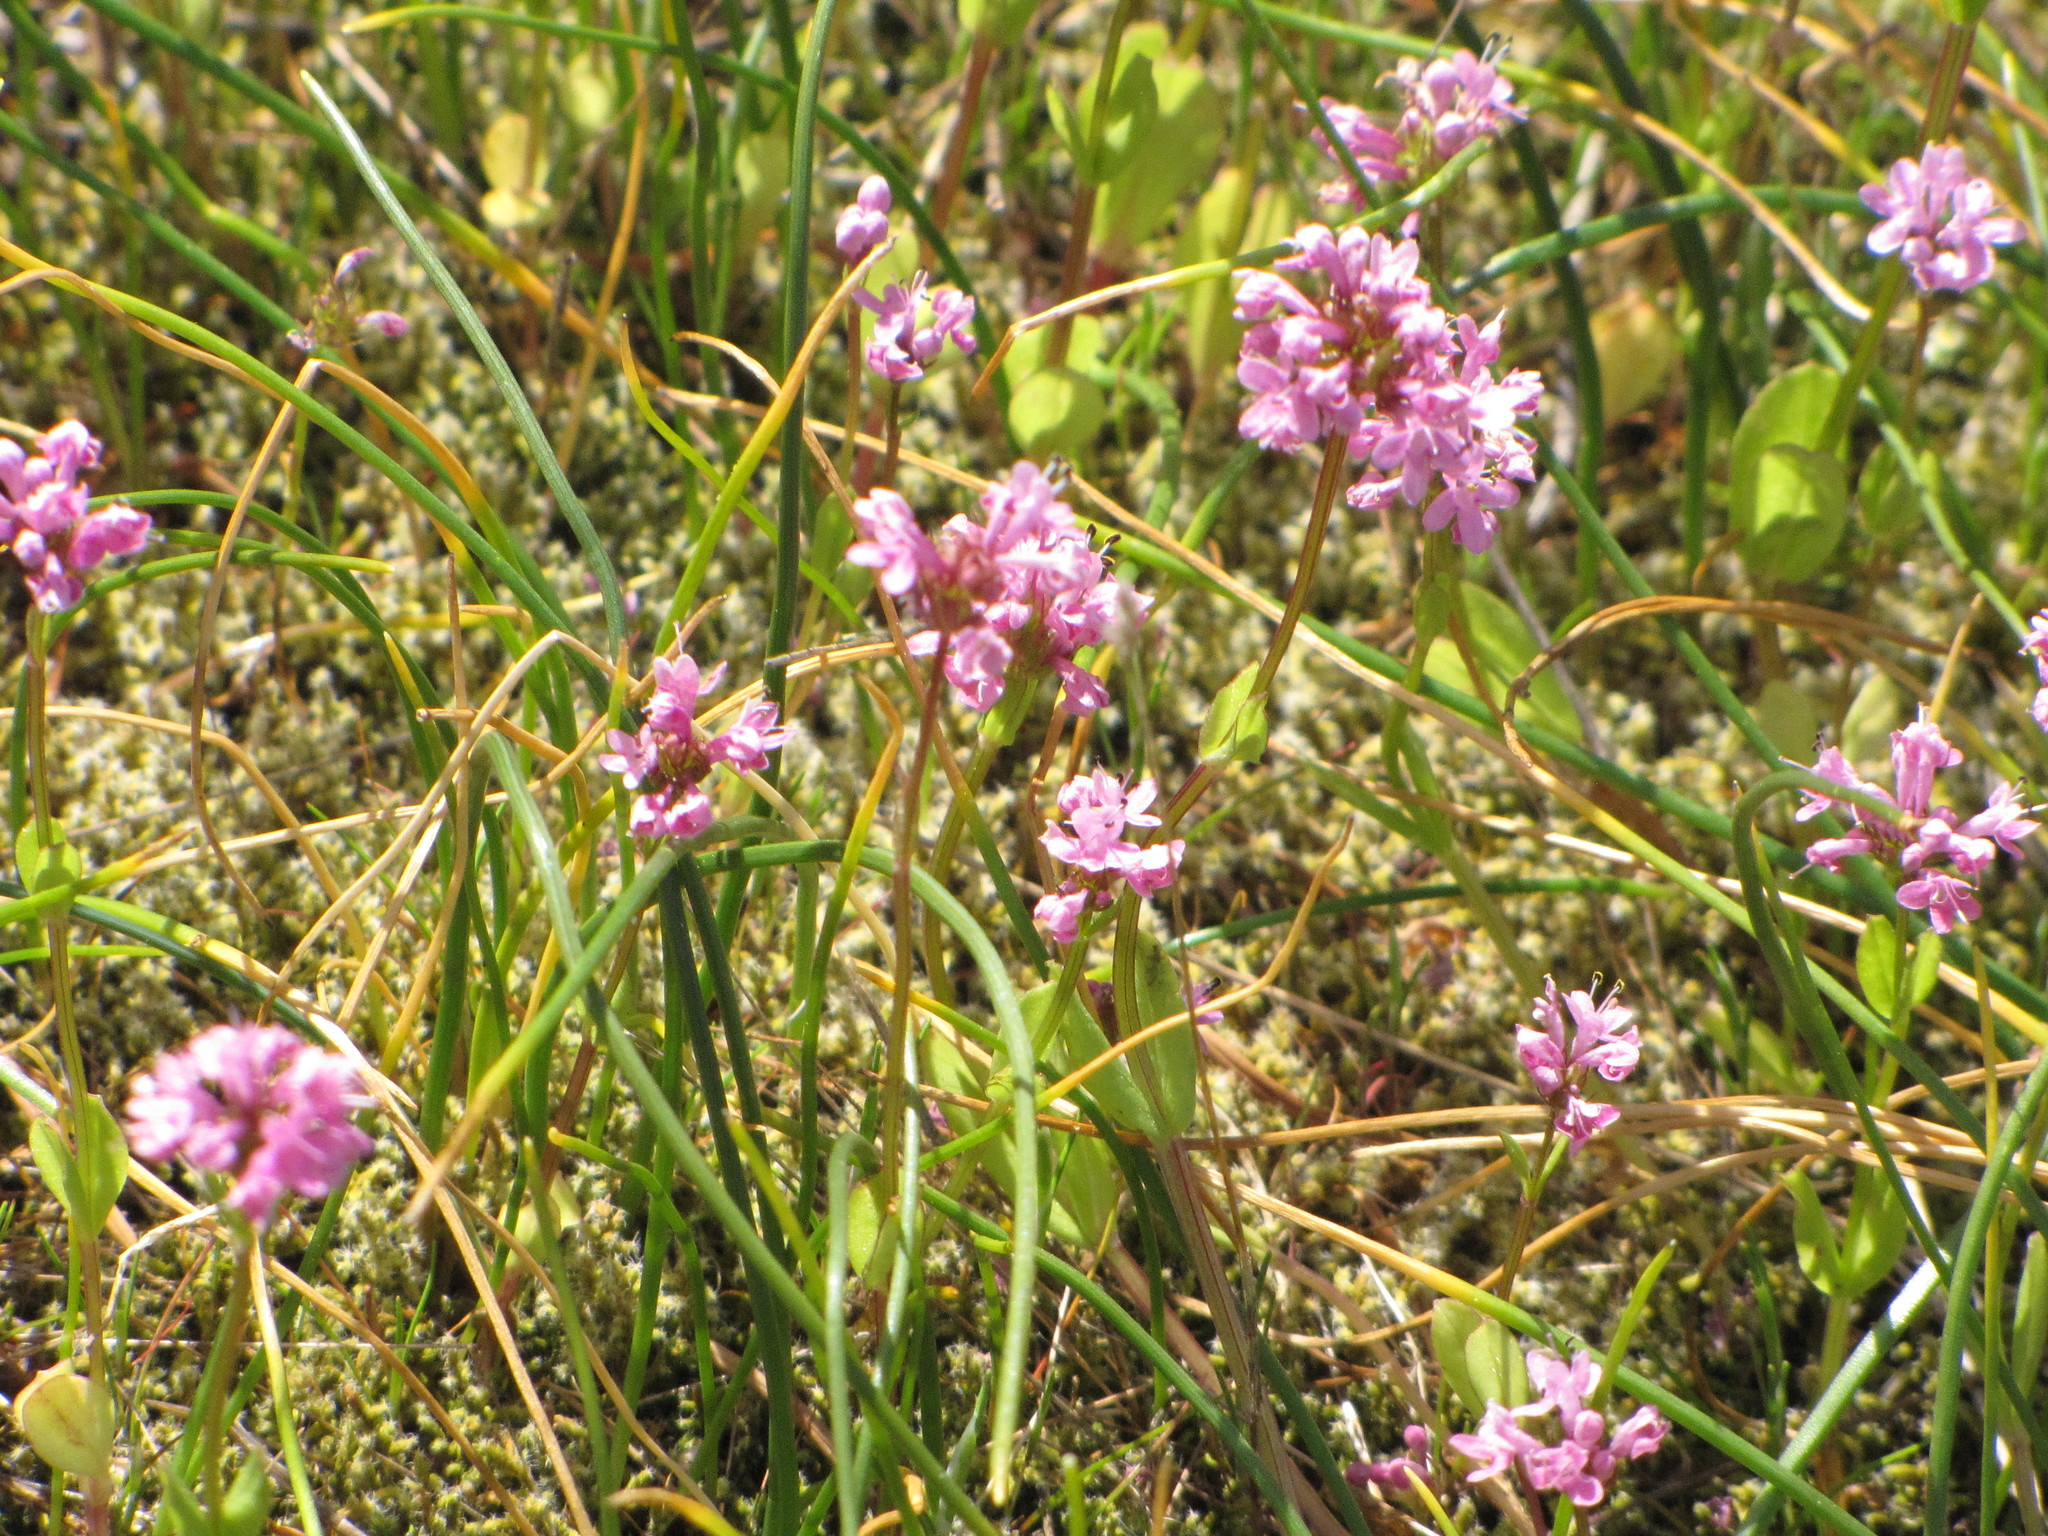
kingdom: Plantae
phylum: Tracheophyta
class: Magnoliopsida
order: Dipsacales
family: Caprifoliaceae
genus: Plectritis
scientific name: Plectritis congesta
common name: Pink plectritis
